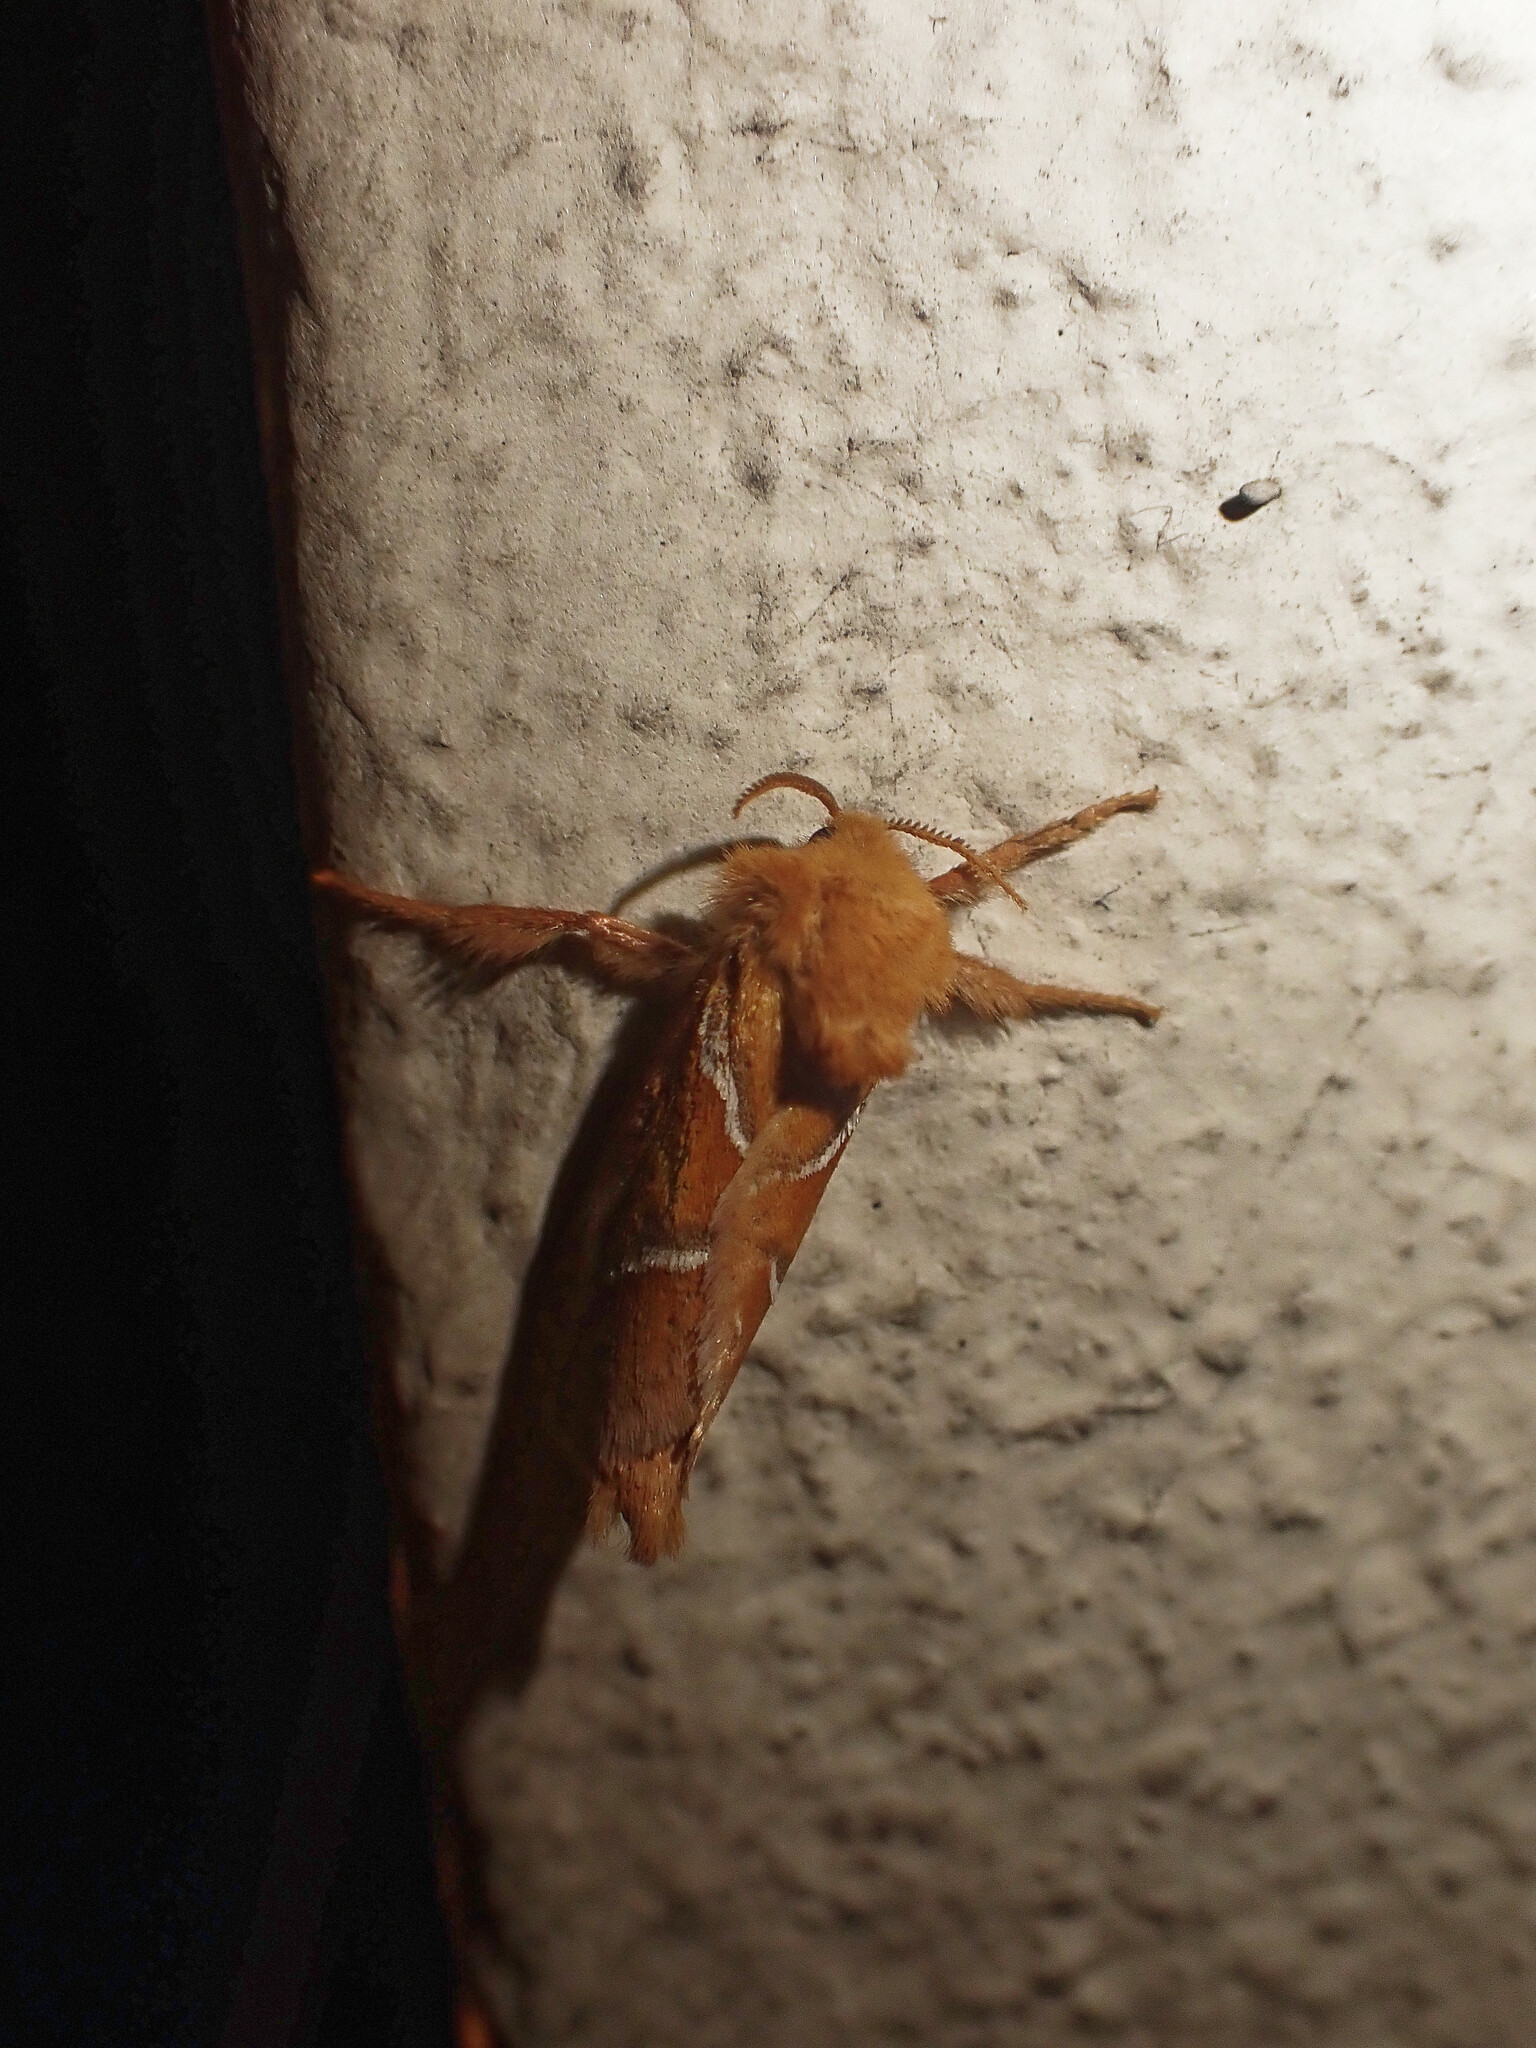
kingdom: Animalia
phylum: Arthropoda
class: Insecta
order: Lepidoptera
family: Hepialidae
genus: Triodia
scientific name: Triodia sylvina
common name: Orange swift
